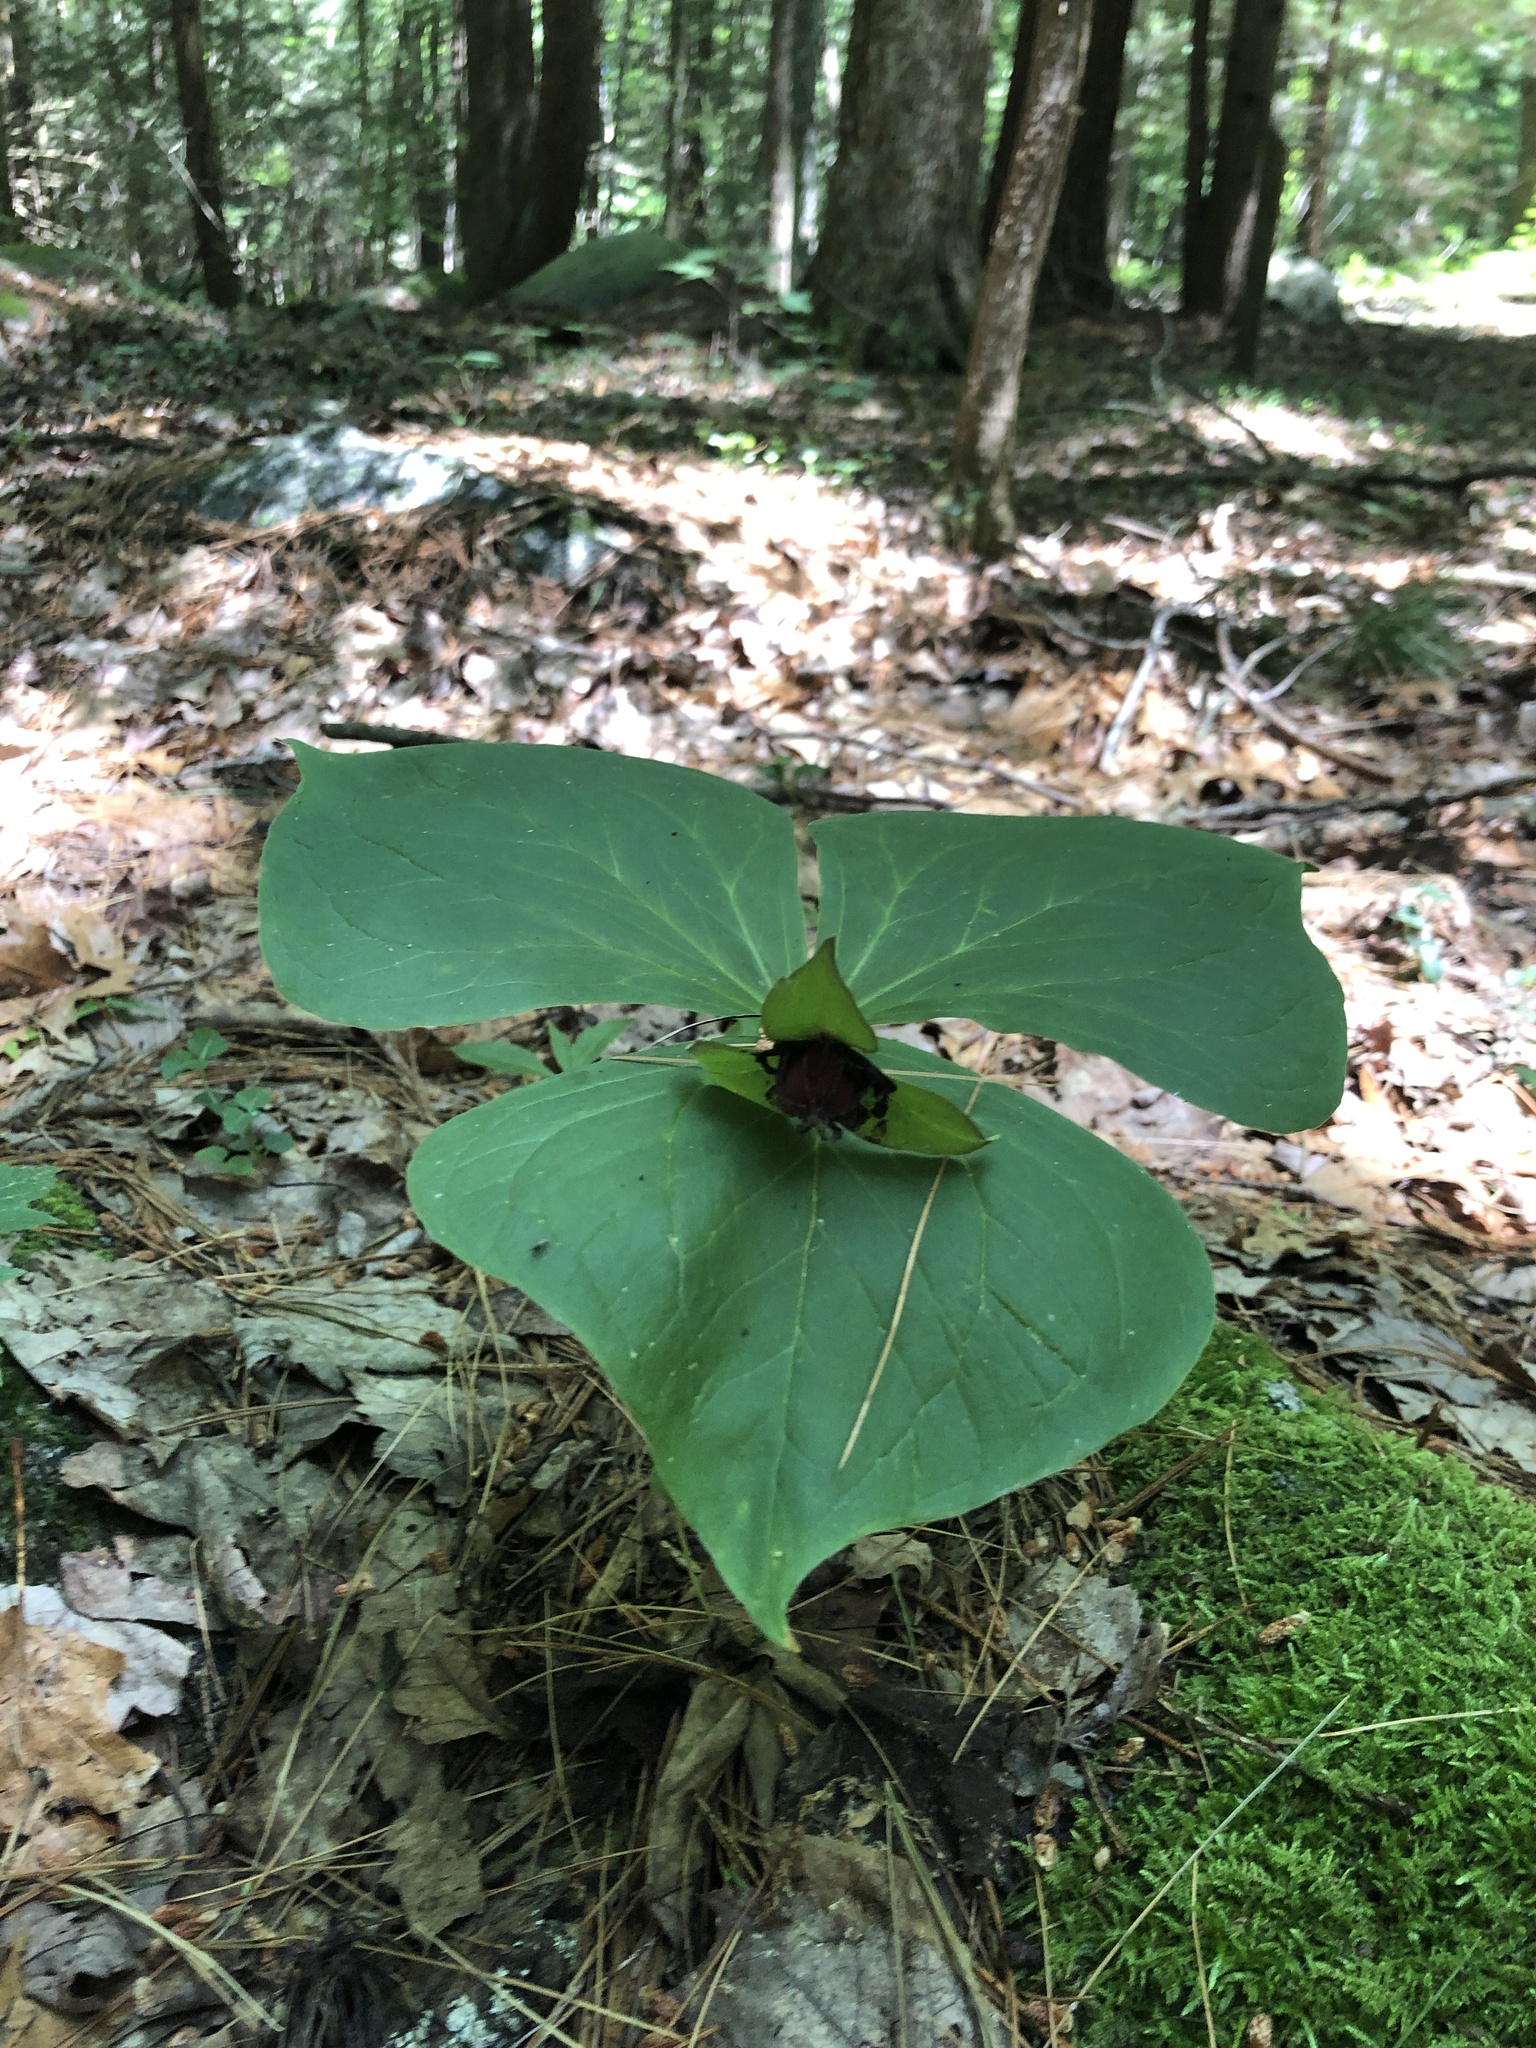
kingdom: Plantae
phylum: Tracheophyta
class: Liliopsida
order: Liliales
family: Melanthiaceae
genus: Trillium
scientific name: Trillium erectum
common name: Purple trillium
